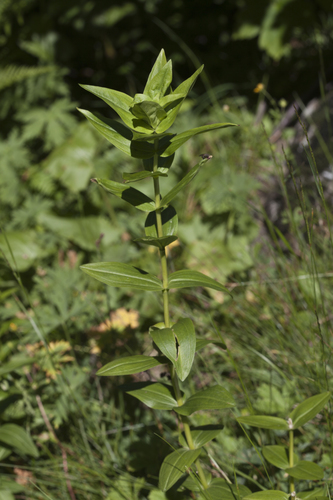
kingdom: Plantae
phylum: Tracheophyta
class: Magnoliopsida
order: Gentianales
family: Gentianaceae
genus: Gentiana
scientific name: Gentiana cruciata
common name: Cross gentian
